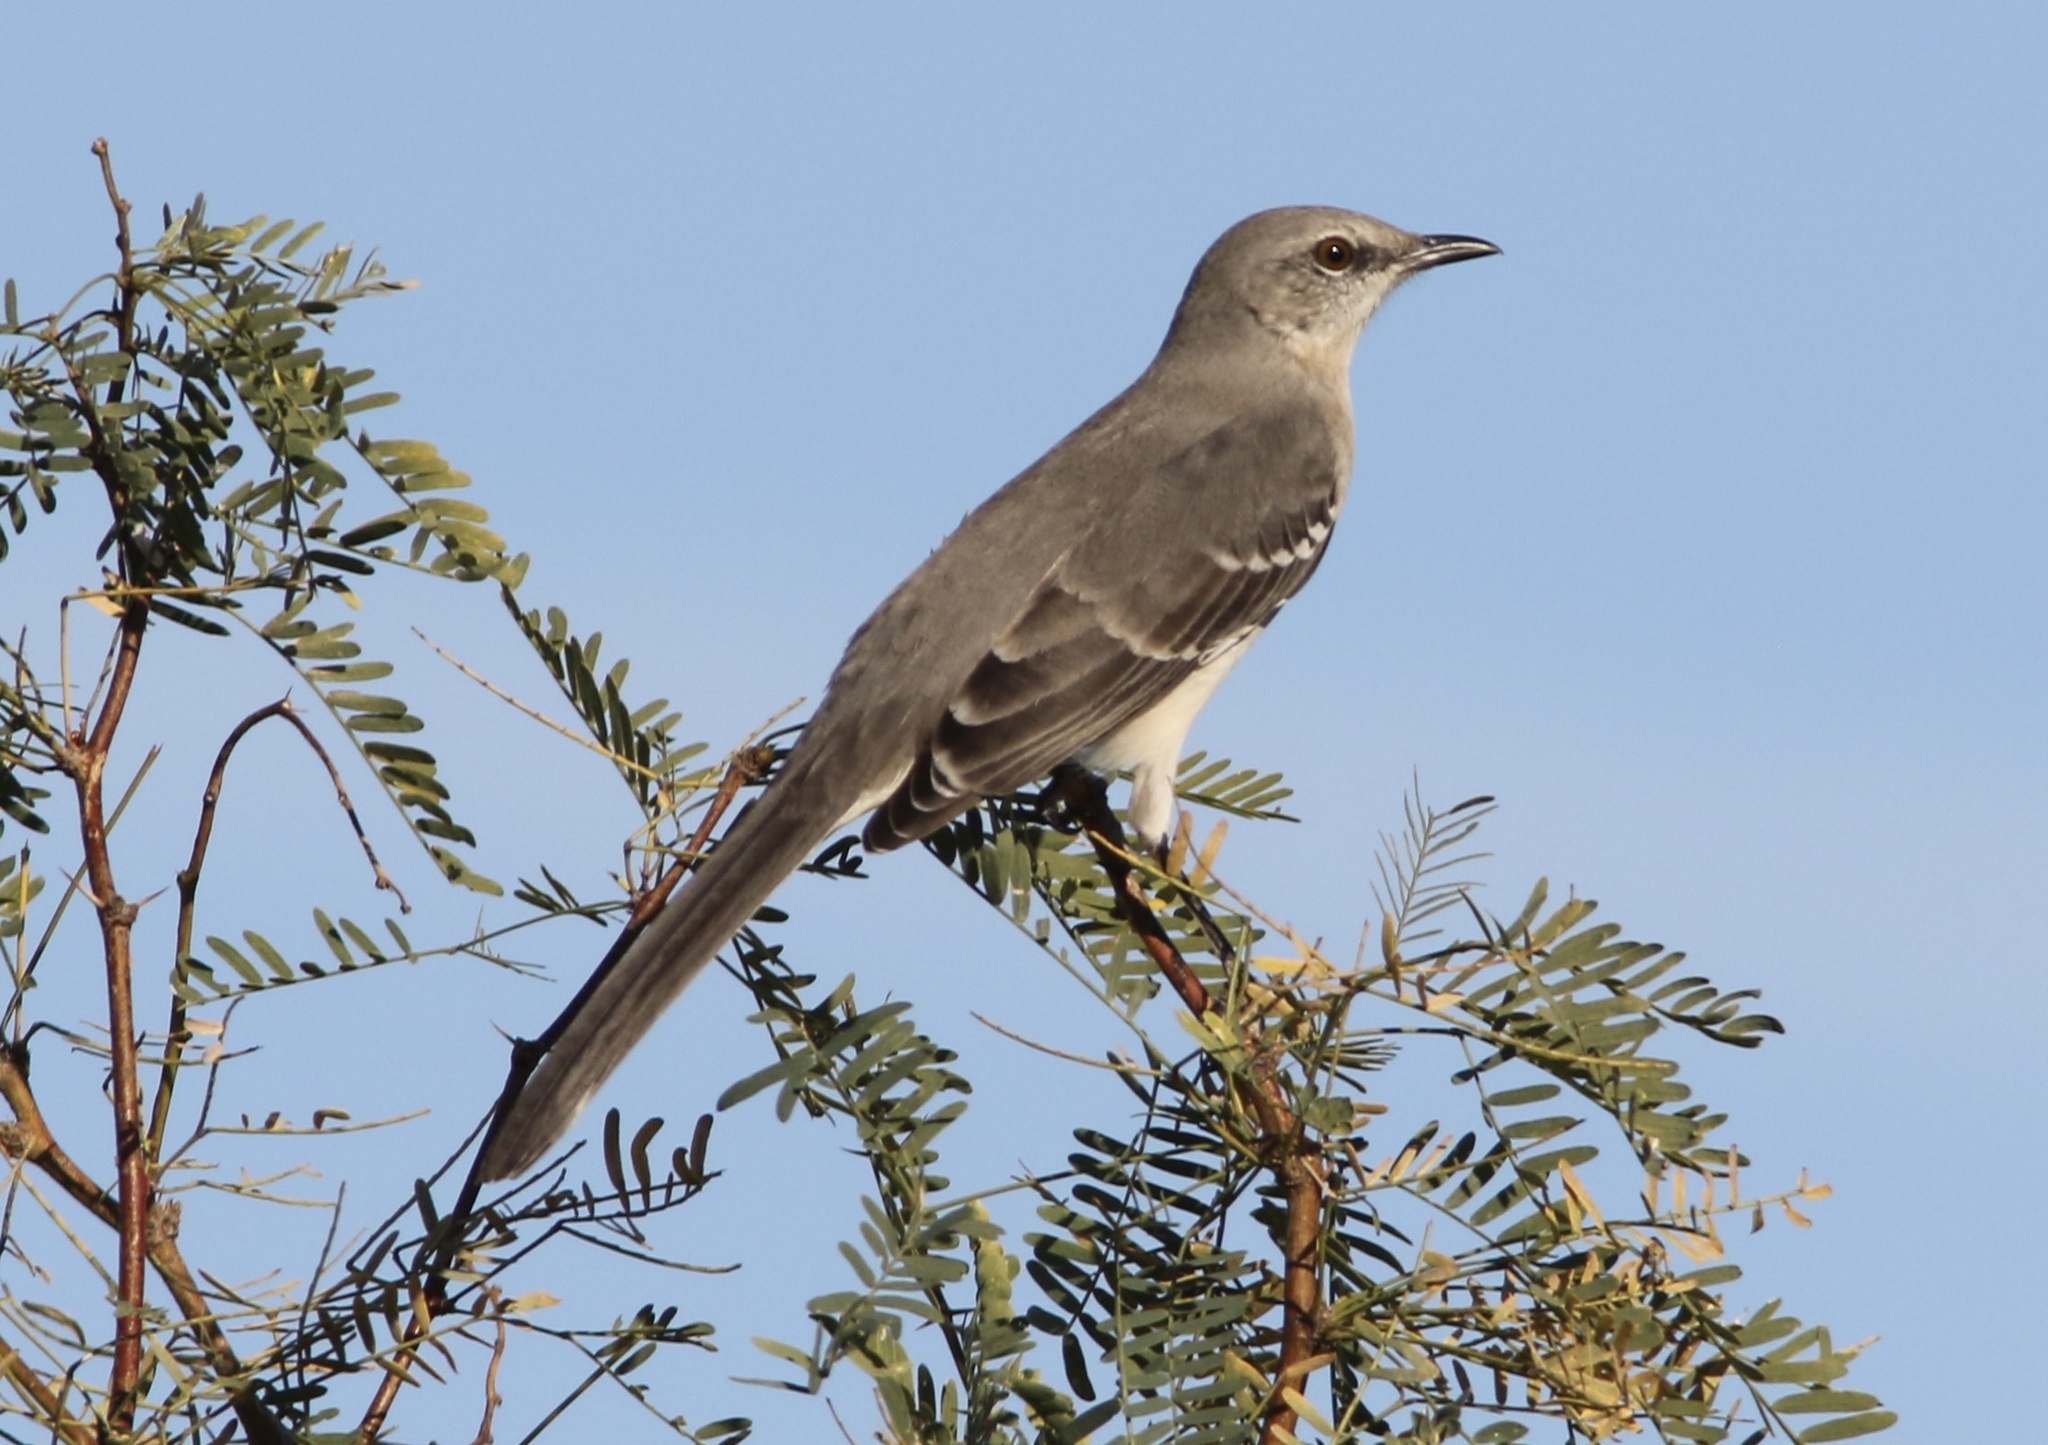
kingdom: Animalia
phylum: Chordata
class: Aves
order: Passeriformes
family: Mimidae
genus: Mimus
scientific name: Mimus polyglottos
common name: Northern mockingbird
